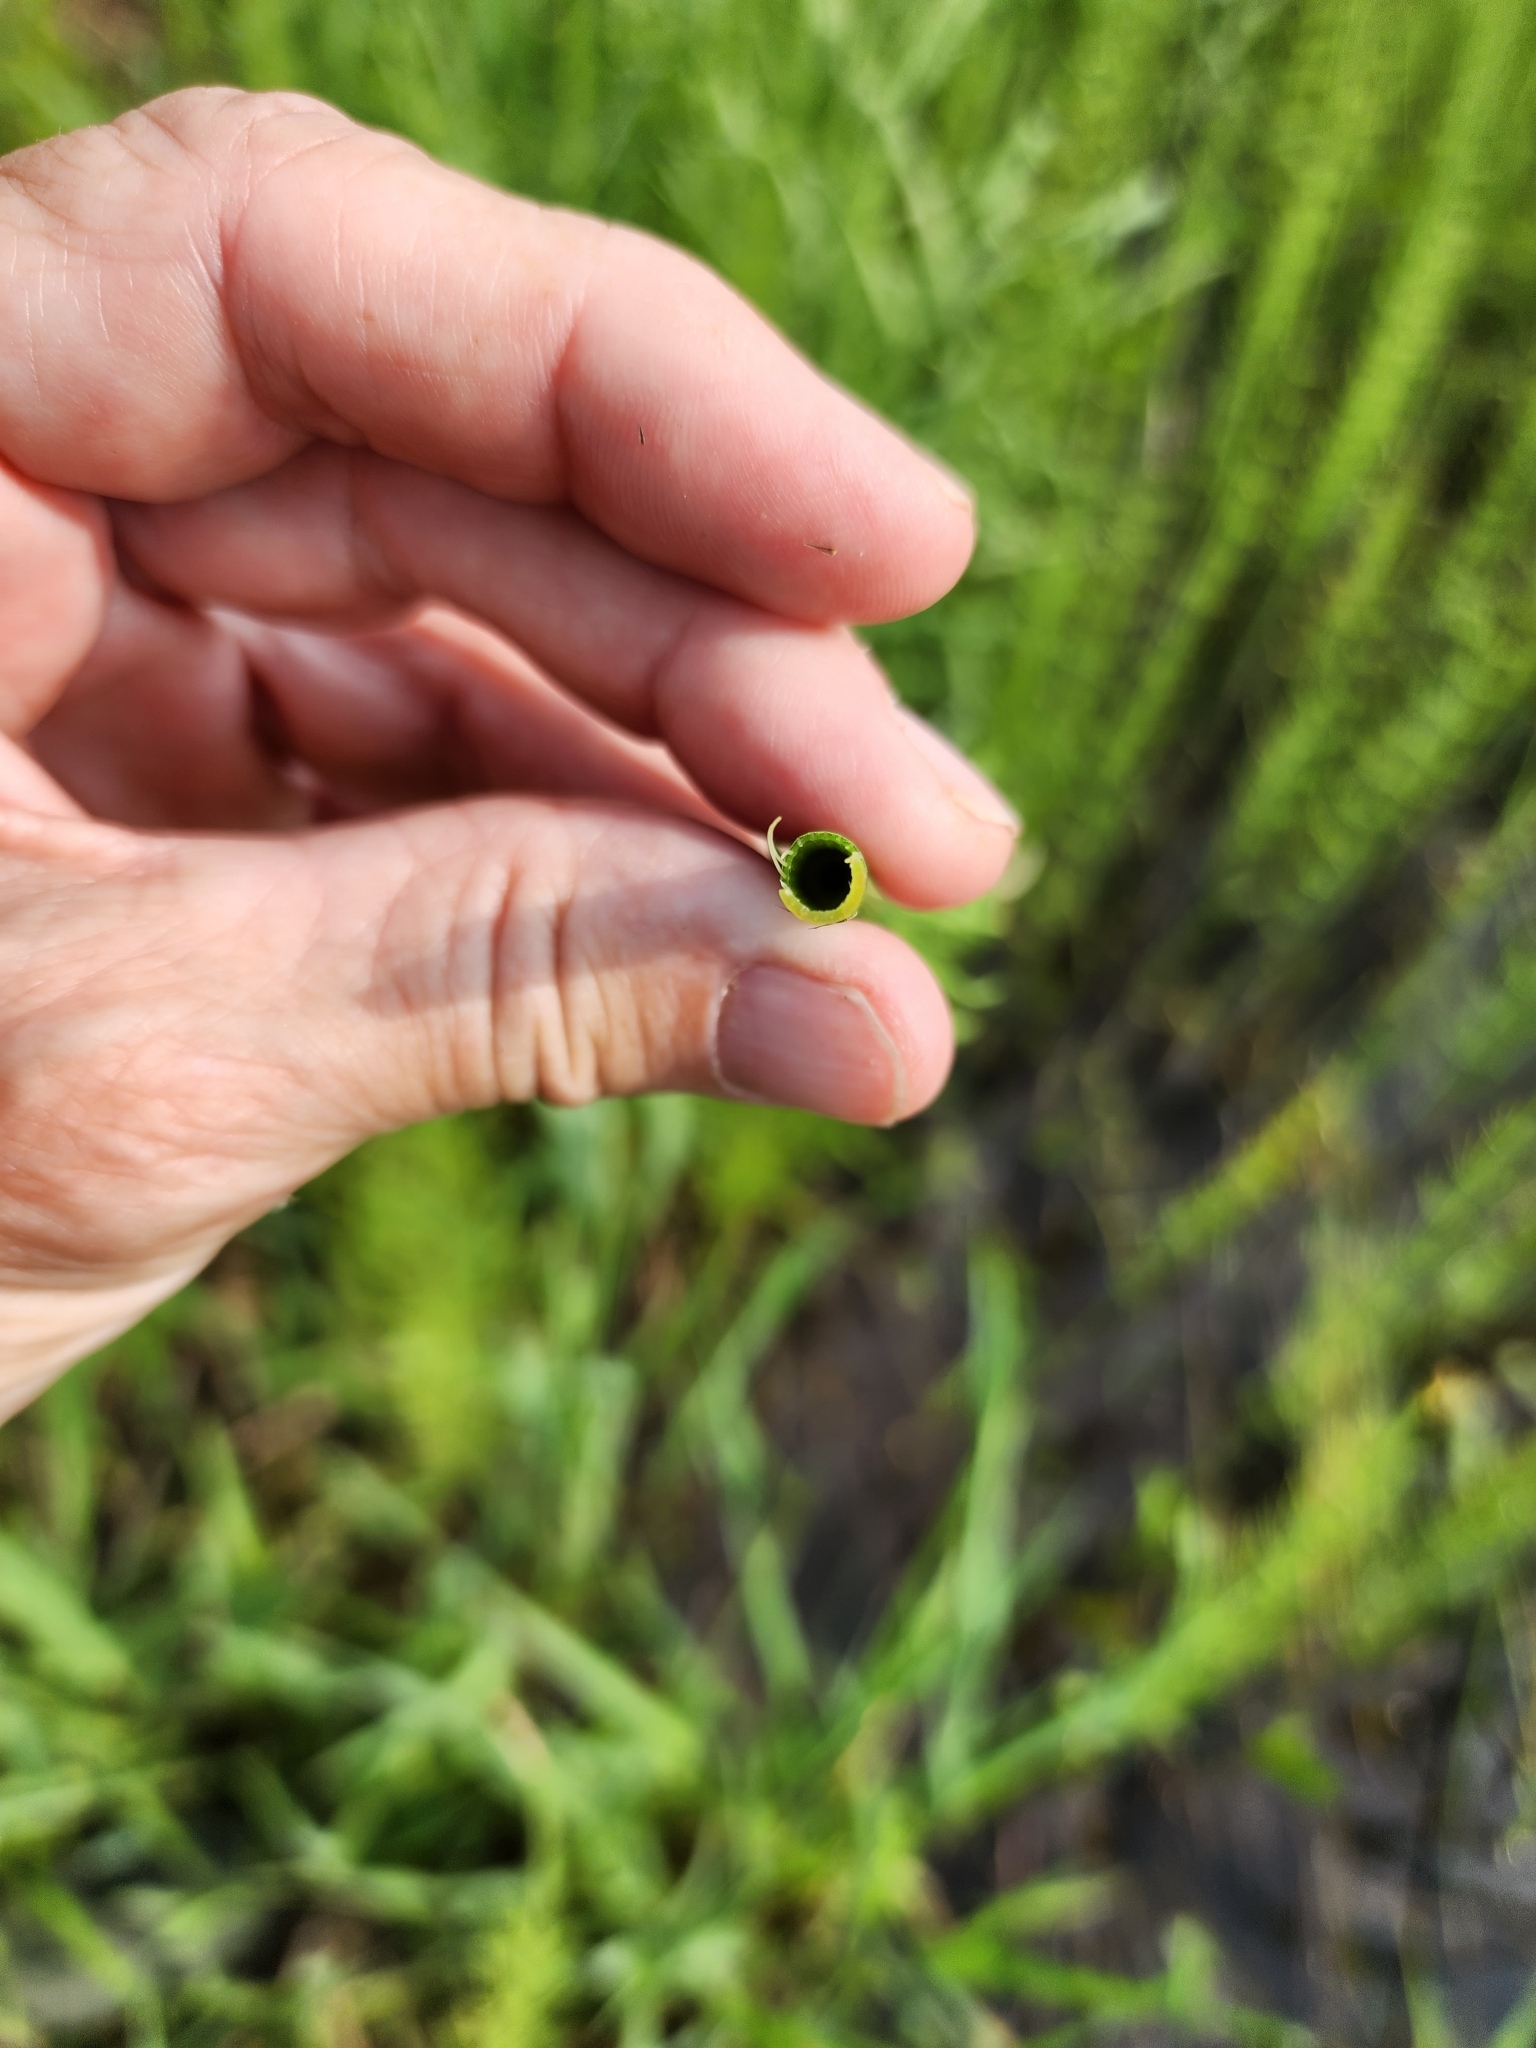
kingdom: Plantae
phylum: Tracheophyta
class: Polypodiopsida
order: Equisetales
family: Equisetaceae
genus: Equisetum
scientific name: Equisetum fluviatile
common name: Water horsetail
